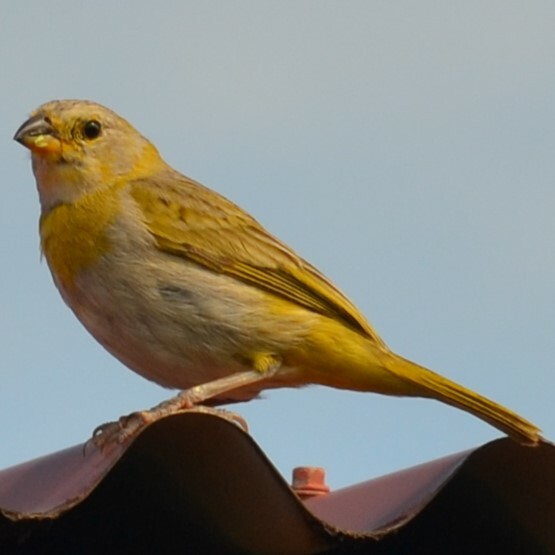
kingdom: Animalia
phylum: Chordata
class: Aves
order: Passeriformes
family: Thraupidae
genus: Sicalis
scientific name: Sicalis flaveola
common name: Saffron finch
